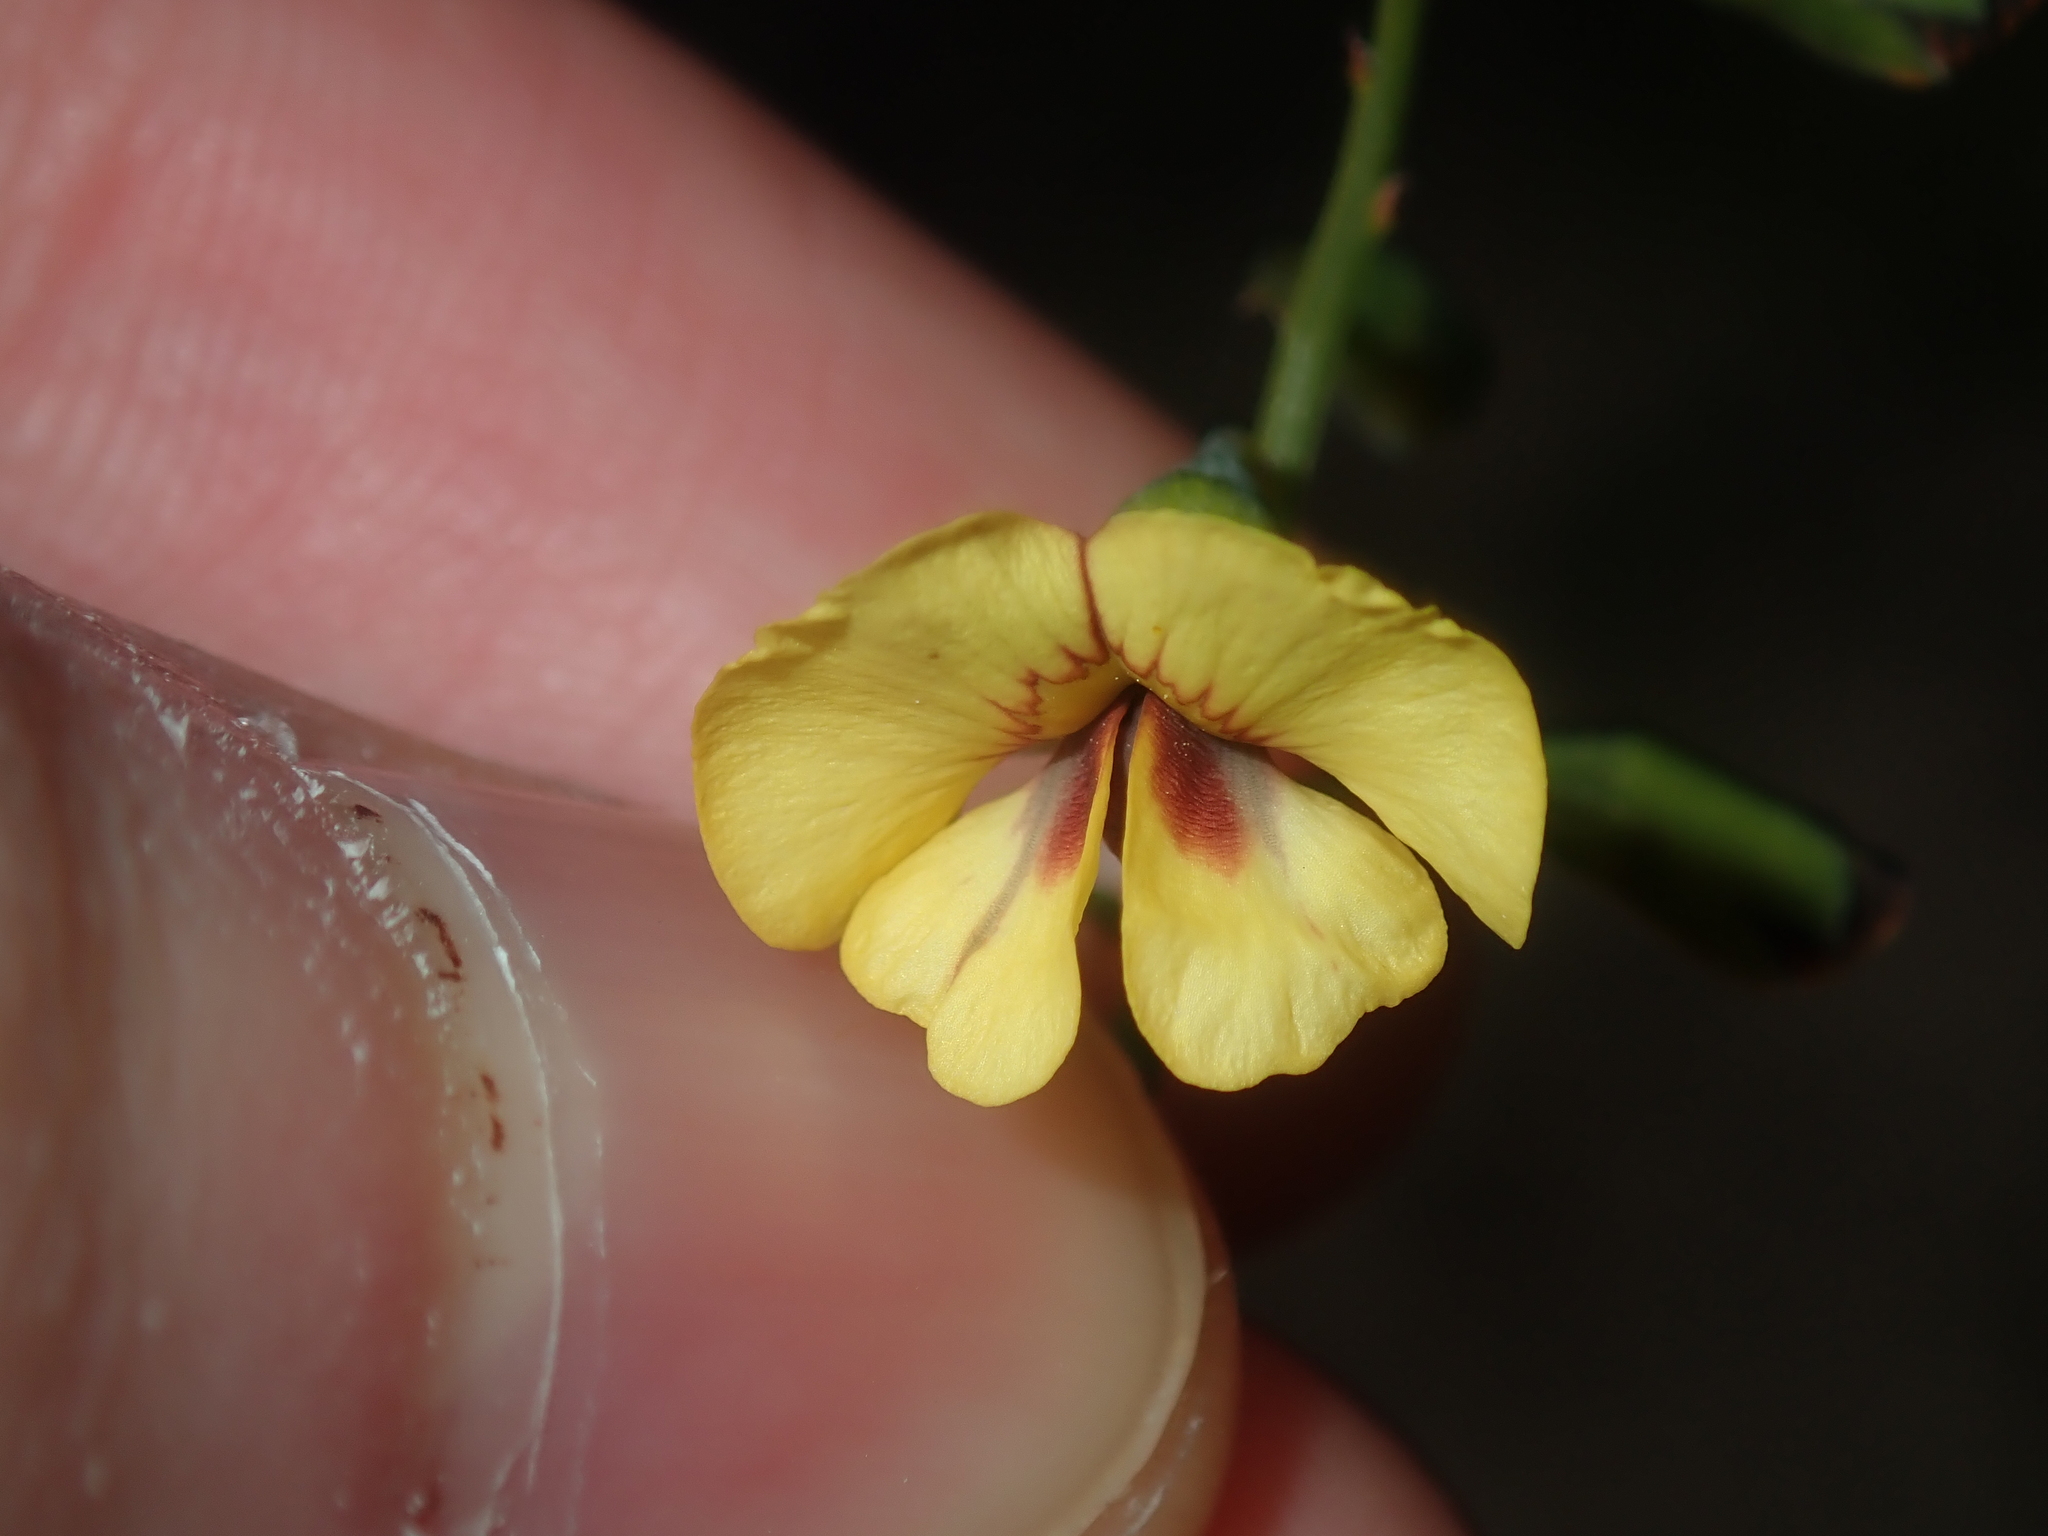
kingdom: Plantae
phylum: Tracheophyta
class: Magnoliopsida
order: Fabales
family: Fabaceae
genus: Mirbelia
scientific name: Mirbelia ramulosa
